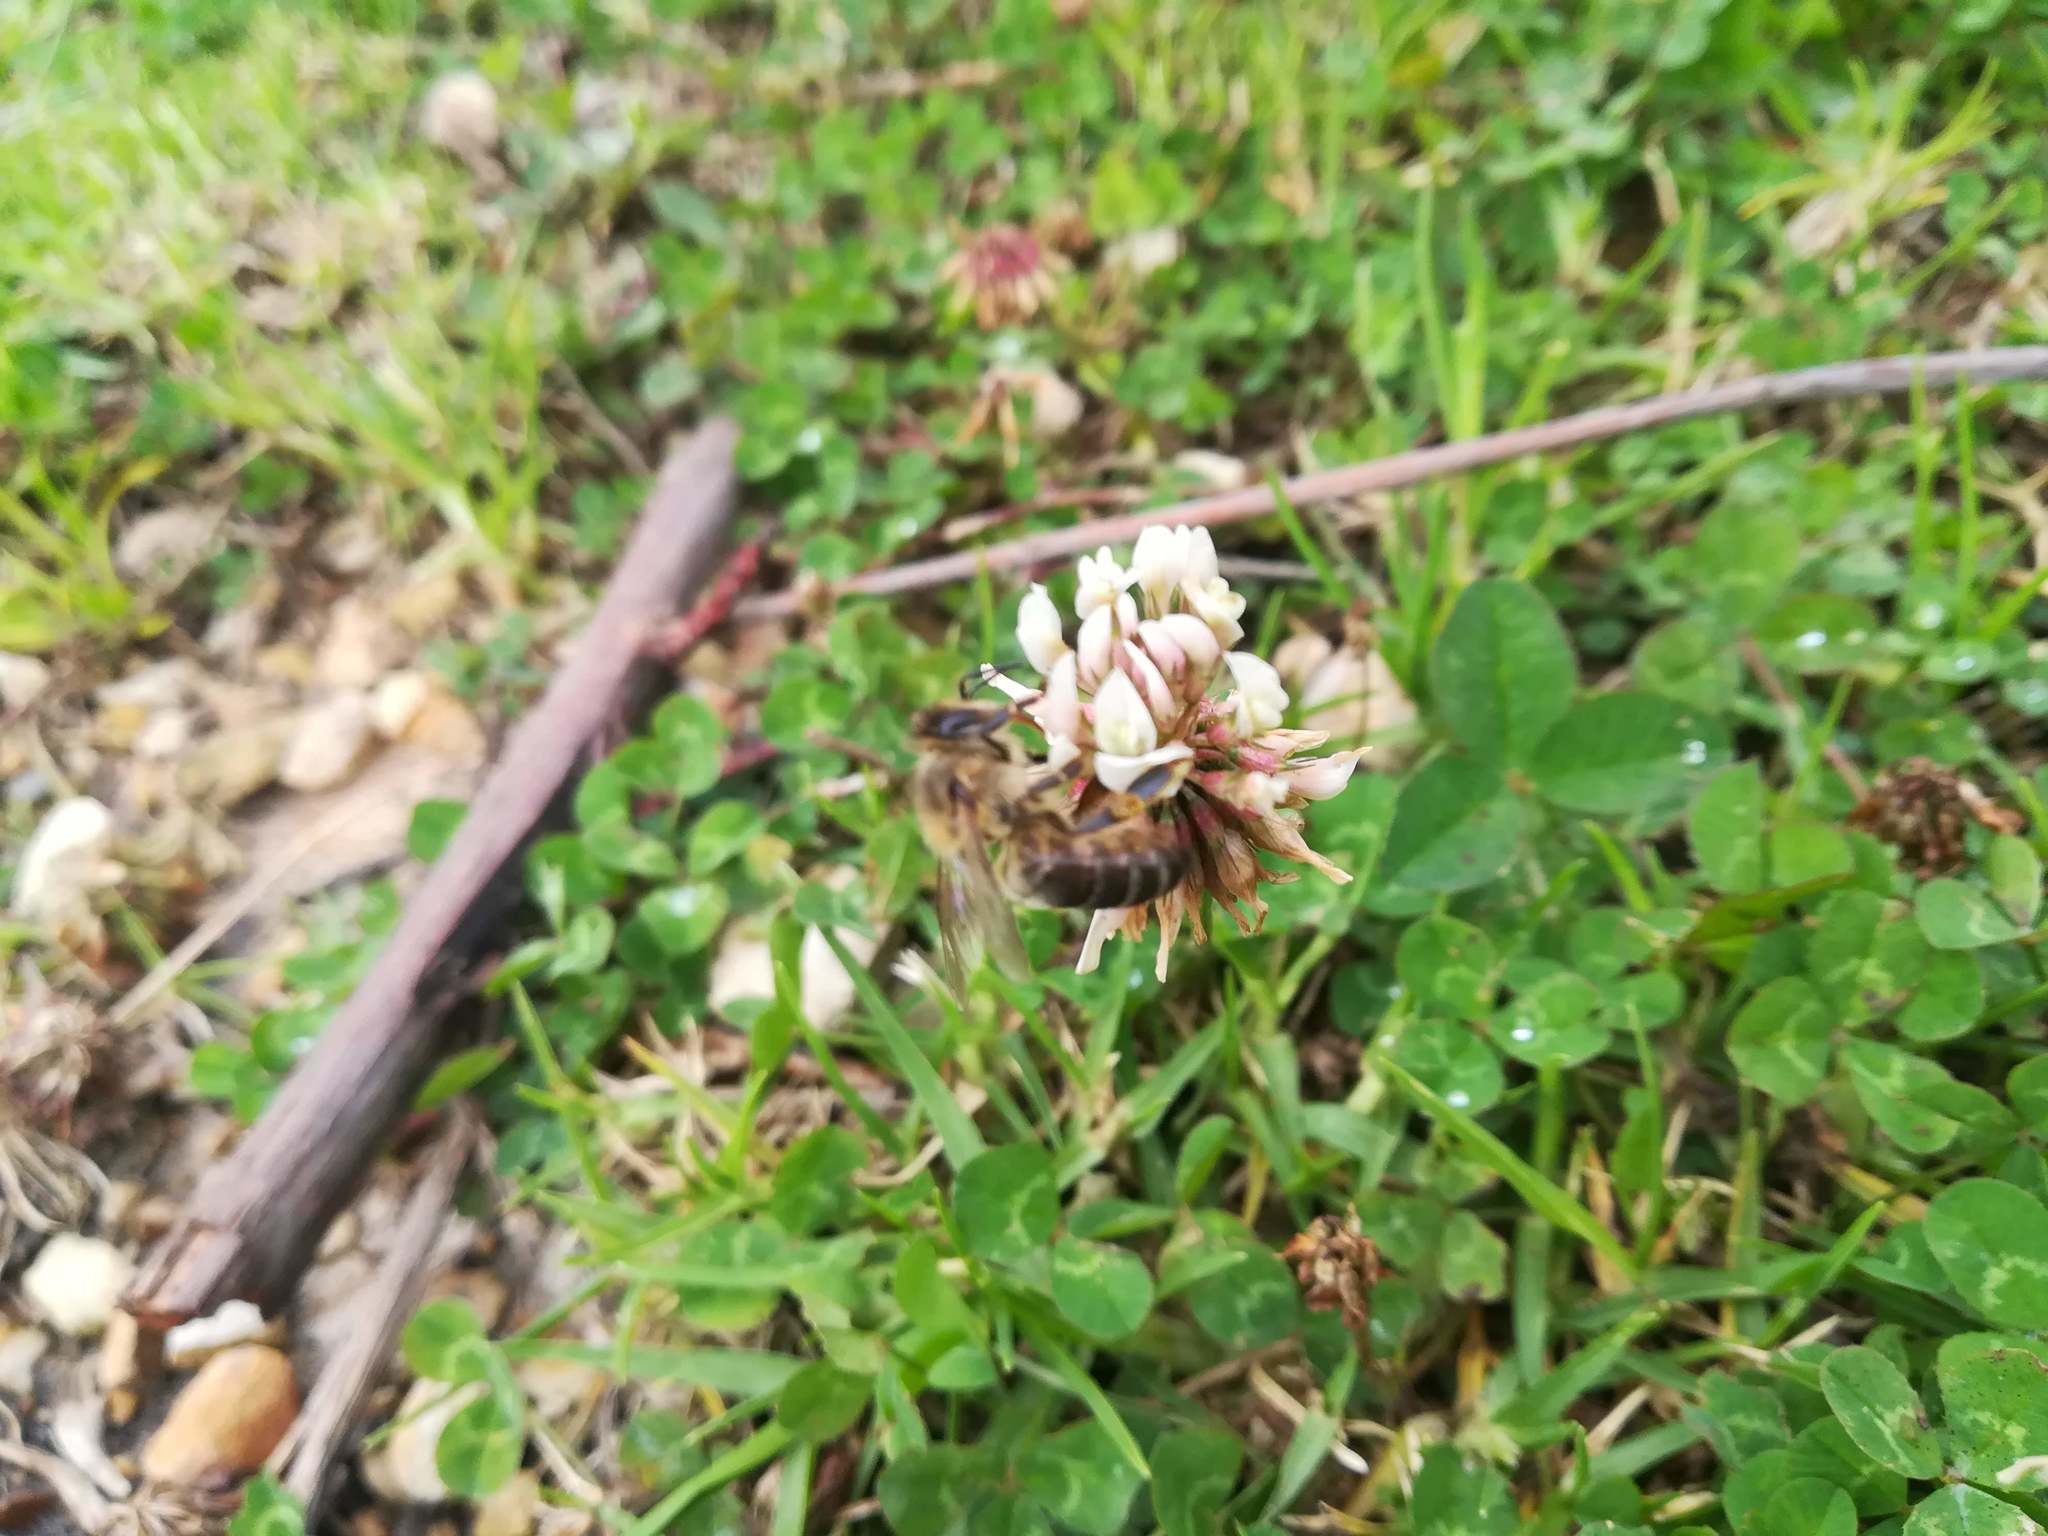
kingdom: Animalia
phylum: Arthropoda
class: Insecta
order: Hymenoptera
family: Apidae
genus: Apis
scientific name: Apis mellifera
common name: Honey bee
